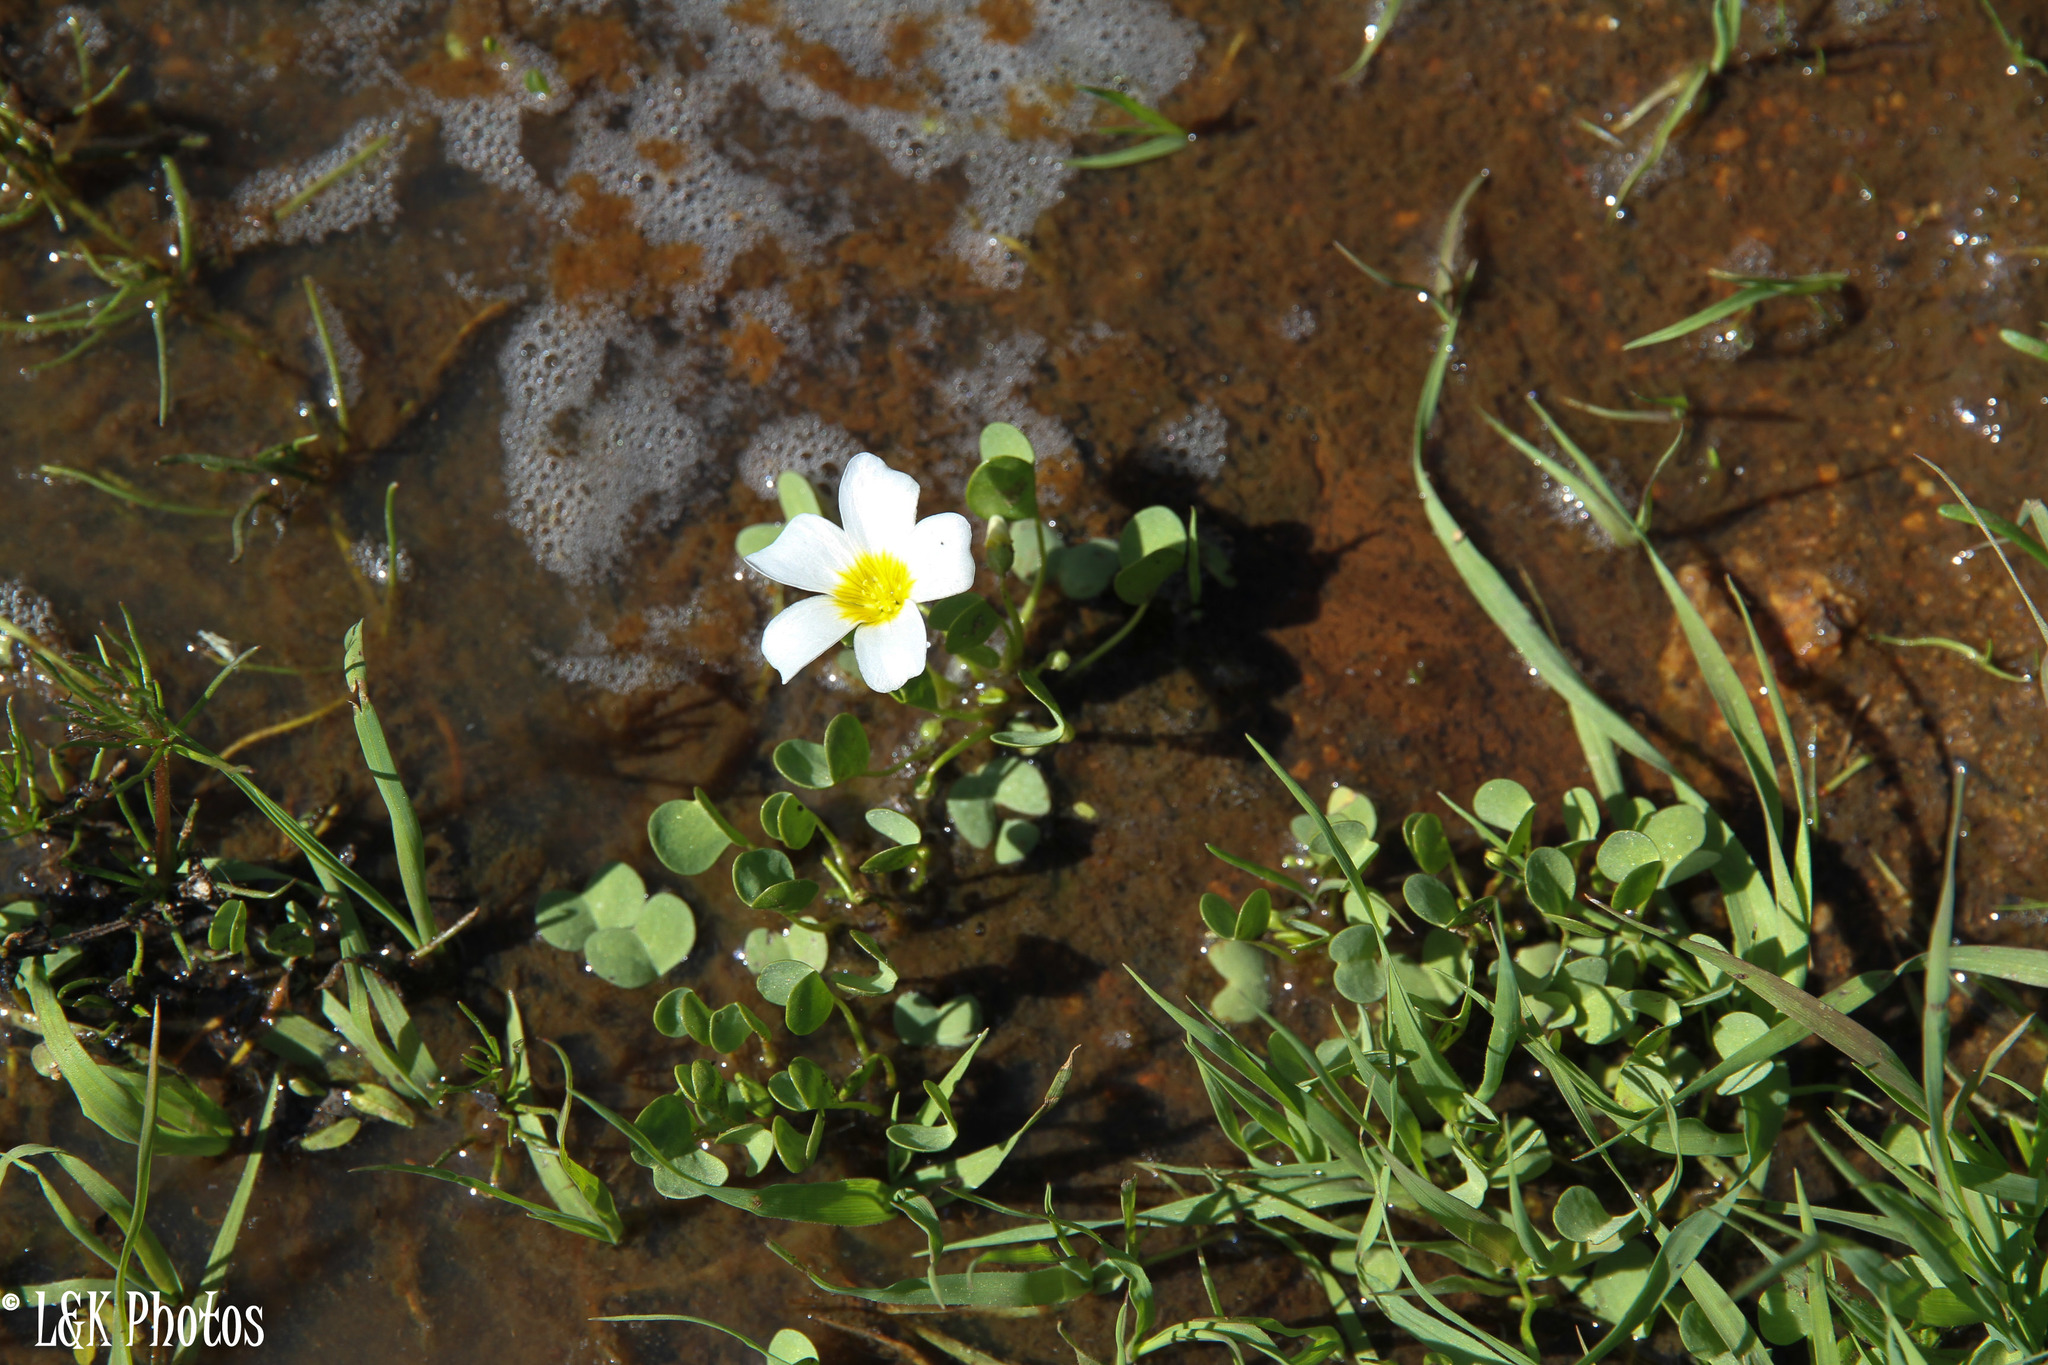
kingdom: Plantae
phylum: Tracheophyta
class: Magnoliopsida
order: Oxalidales
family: Oxalidaceae
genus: Oxalis
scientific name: Oxalis dregei
